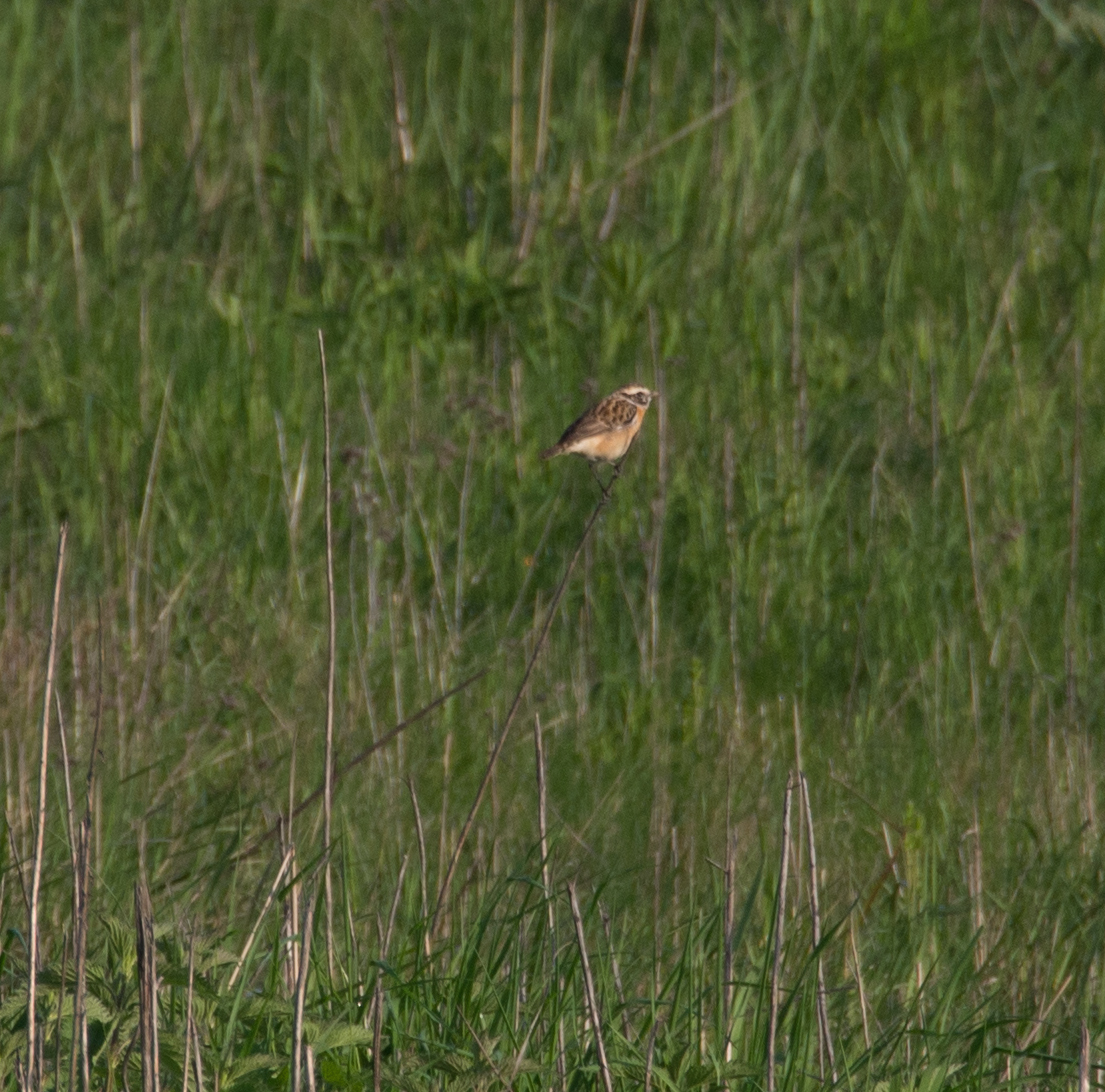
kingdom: Animalia
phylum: Chordata
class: Aves
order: Passeriformes
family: Muscicapidae
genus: Saxicola
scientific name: Saxicola rubetra
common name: Whinchat
